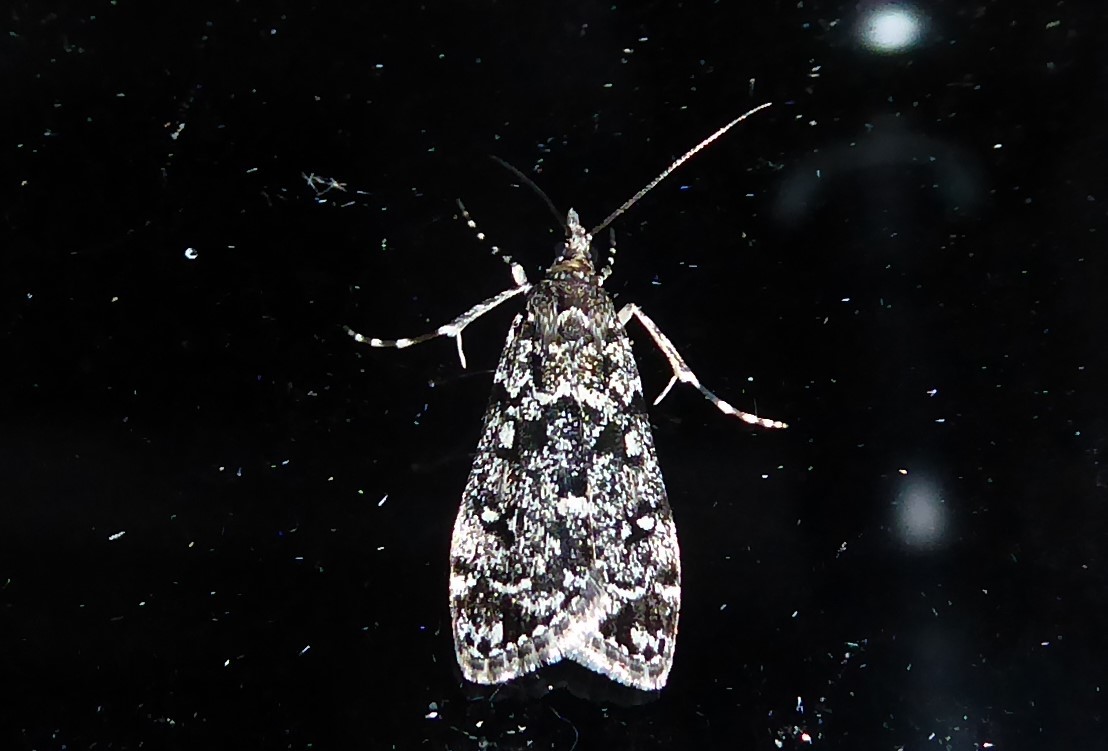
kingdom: Animalia
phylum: Arthropoda
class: Insecta
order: Lepidoptera
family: Crambidae
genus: Eudonia
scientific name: Eudonia philerga
